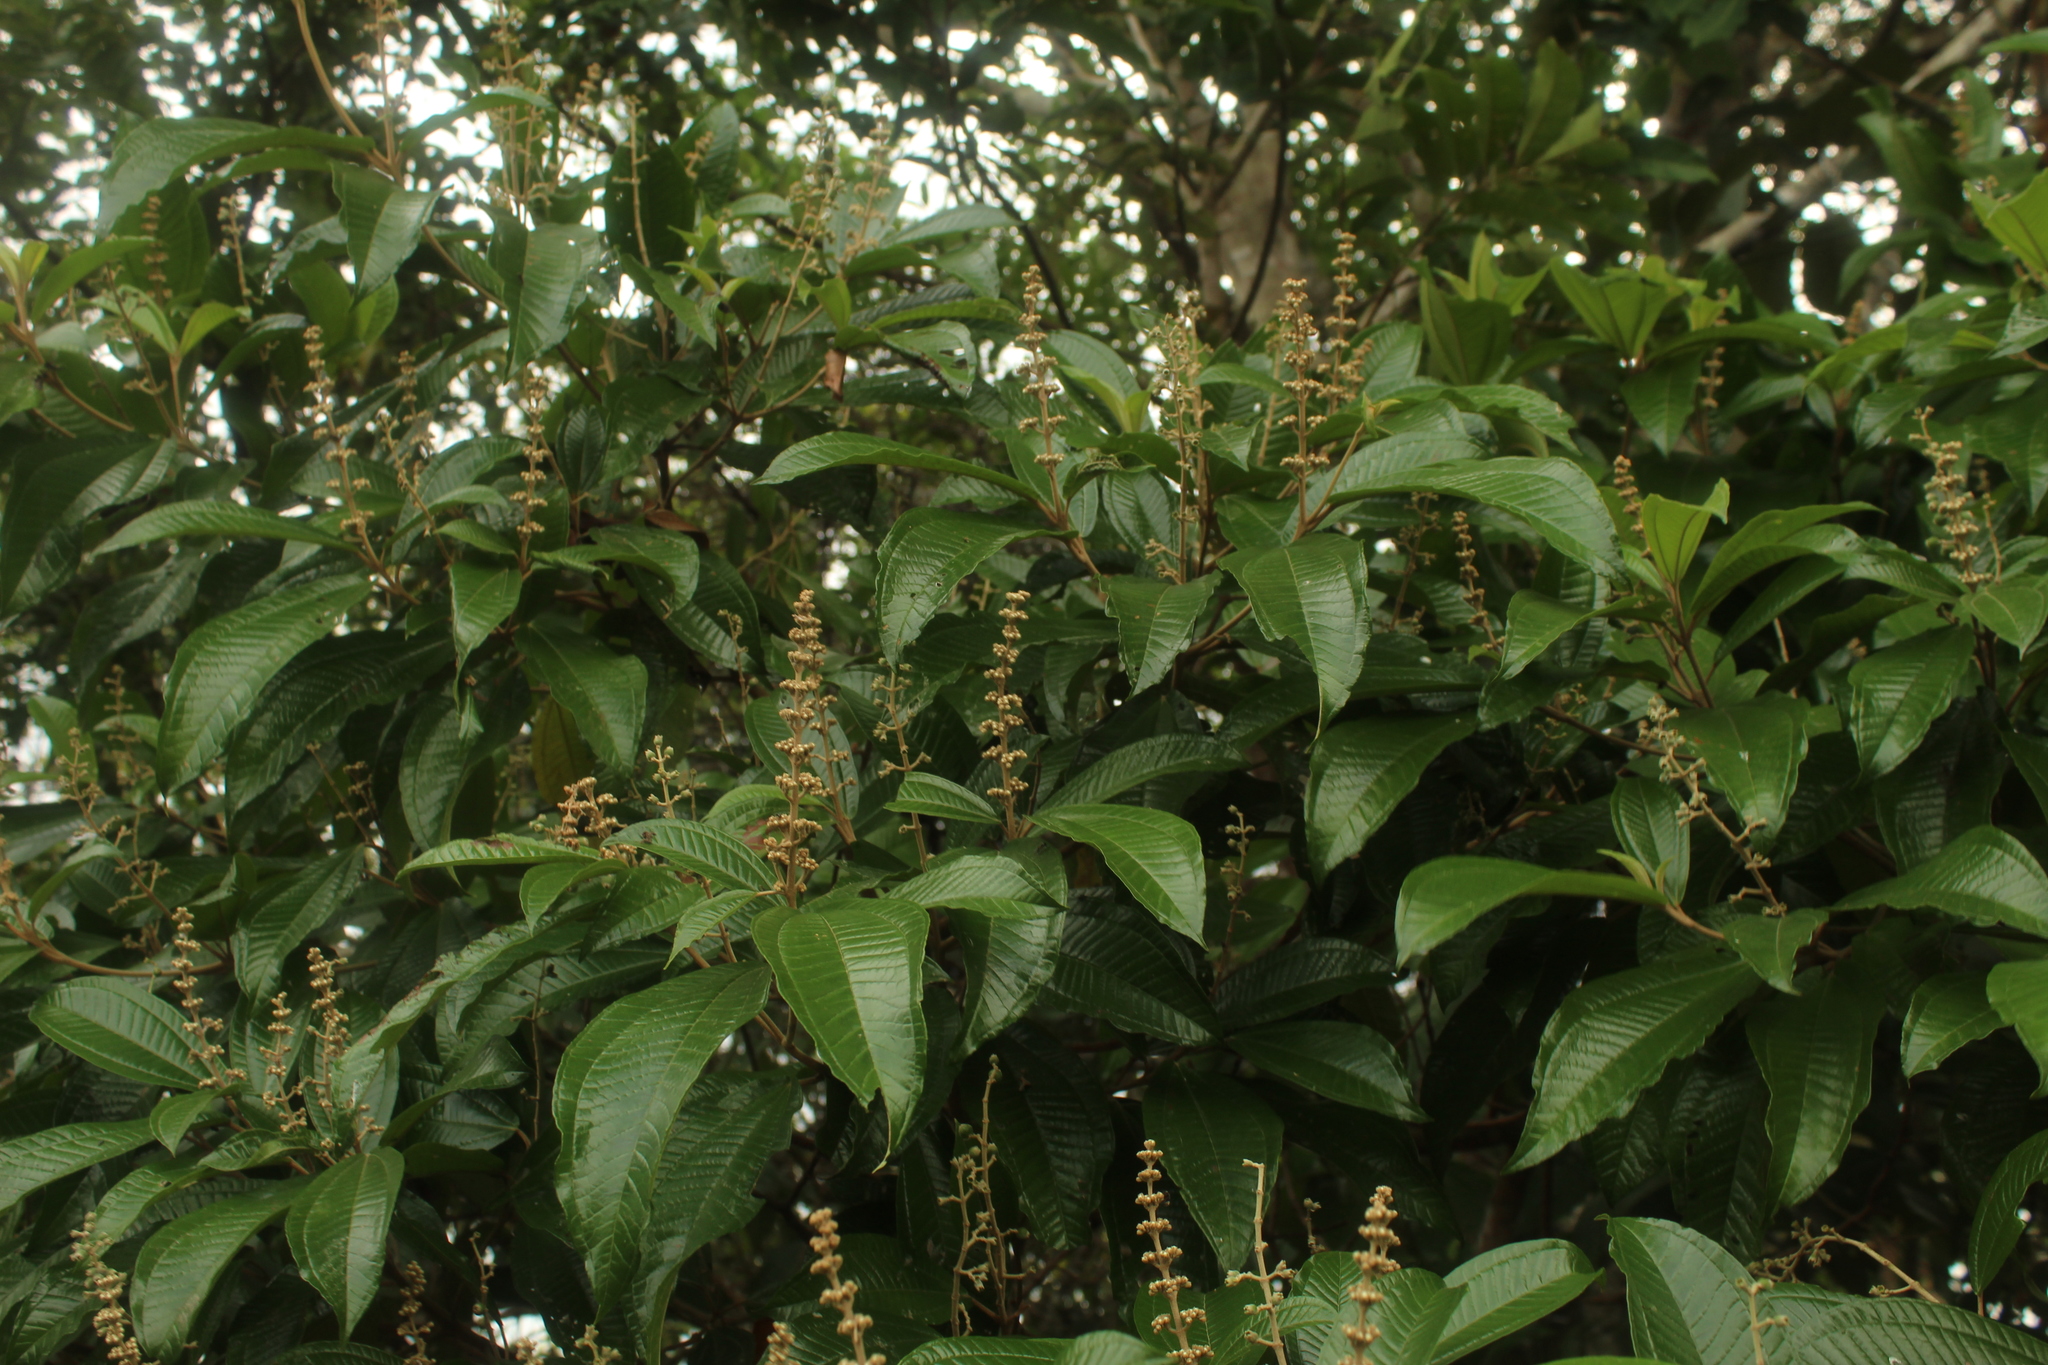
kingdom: Plantae
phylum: Tracheophyta
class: Magnoliopsida
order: Myrtales
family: Melastomataceae
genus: Miconia
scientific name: Miconia multispicata
